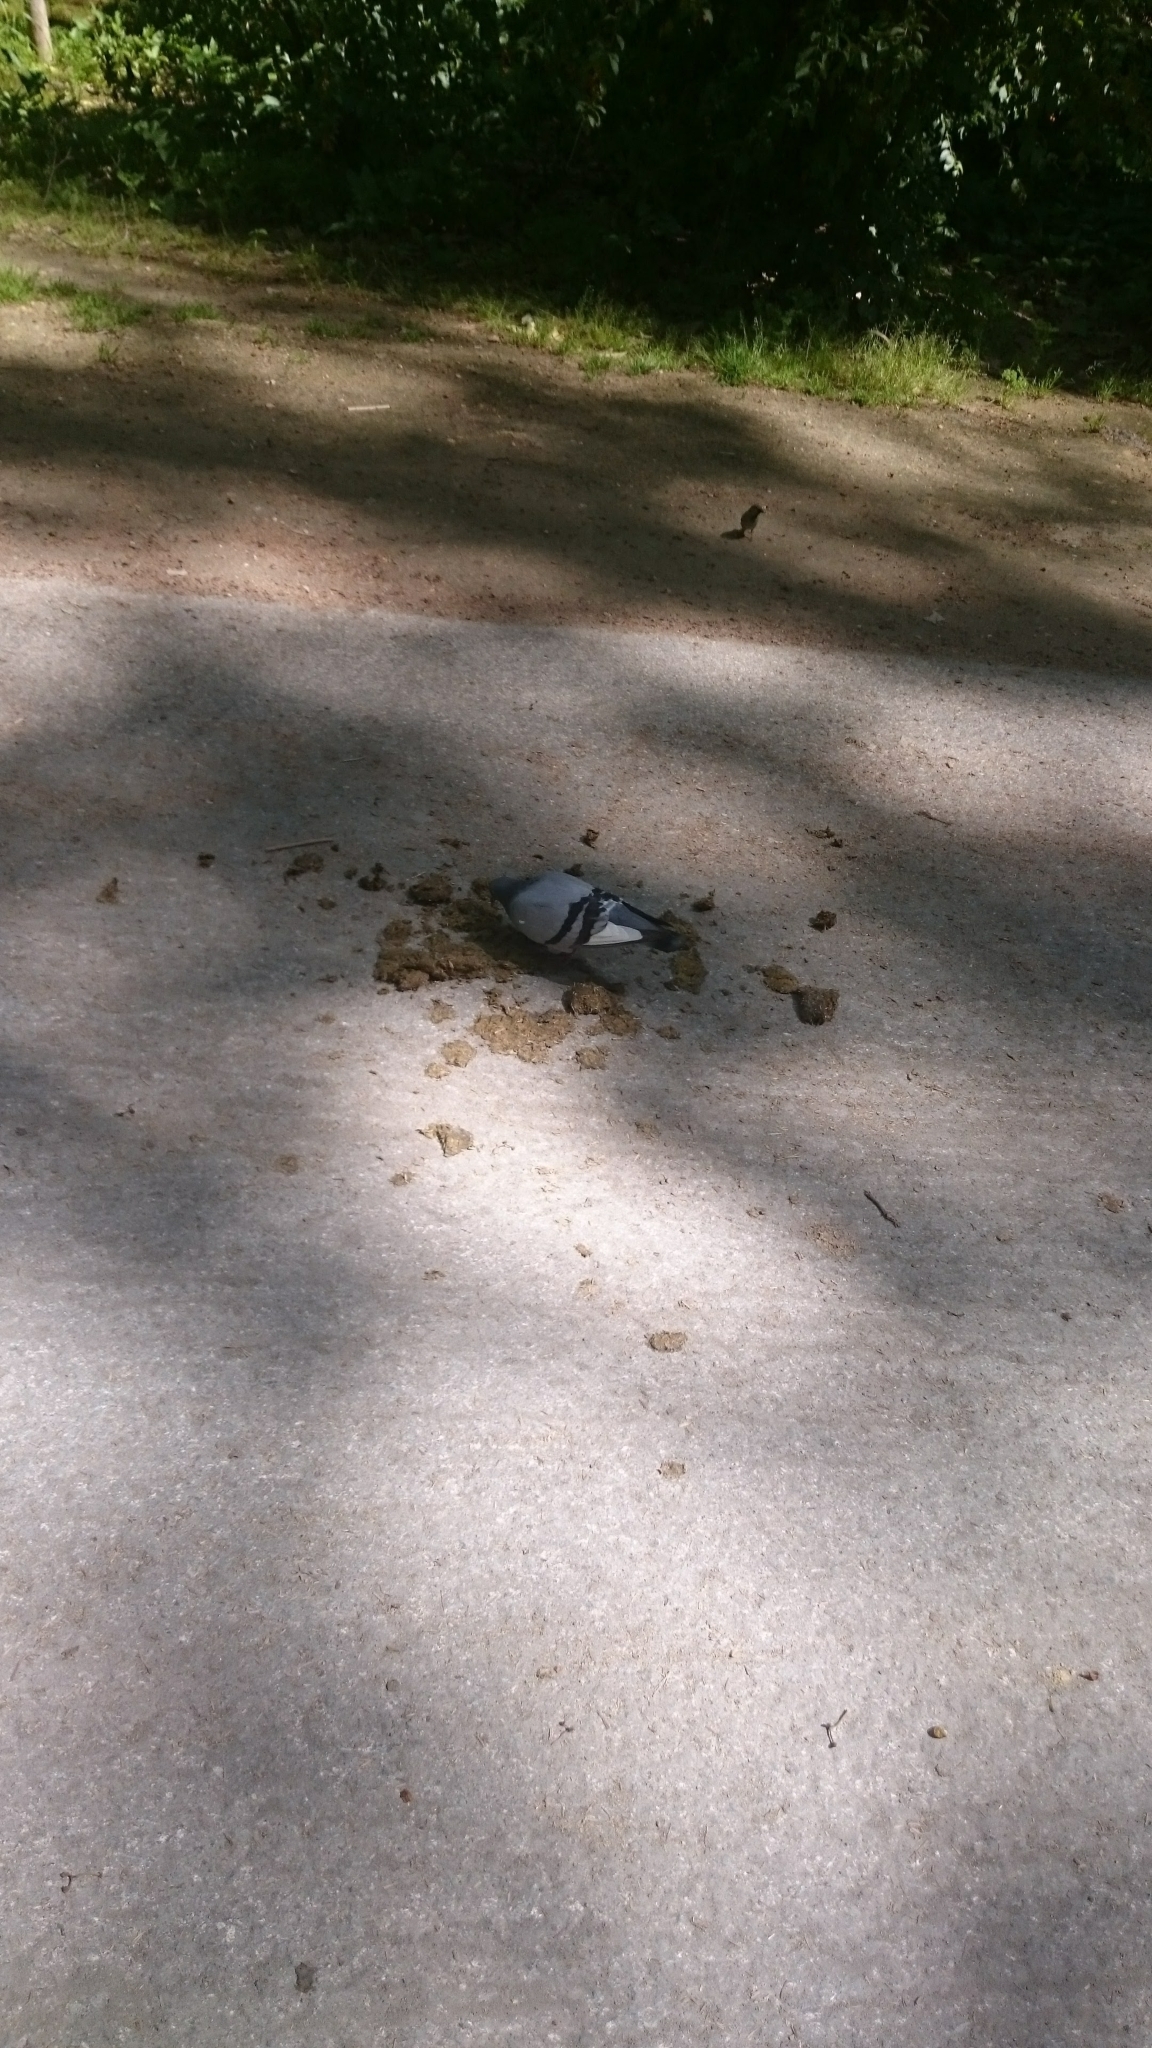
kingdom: Animalia
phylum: Chordata
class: Aves
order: Columbiformes
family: Columbidae
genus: Columba
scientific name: Columba livia
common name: Rock pigeon
